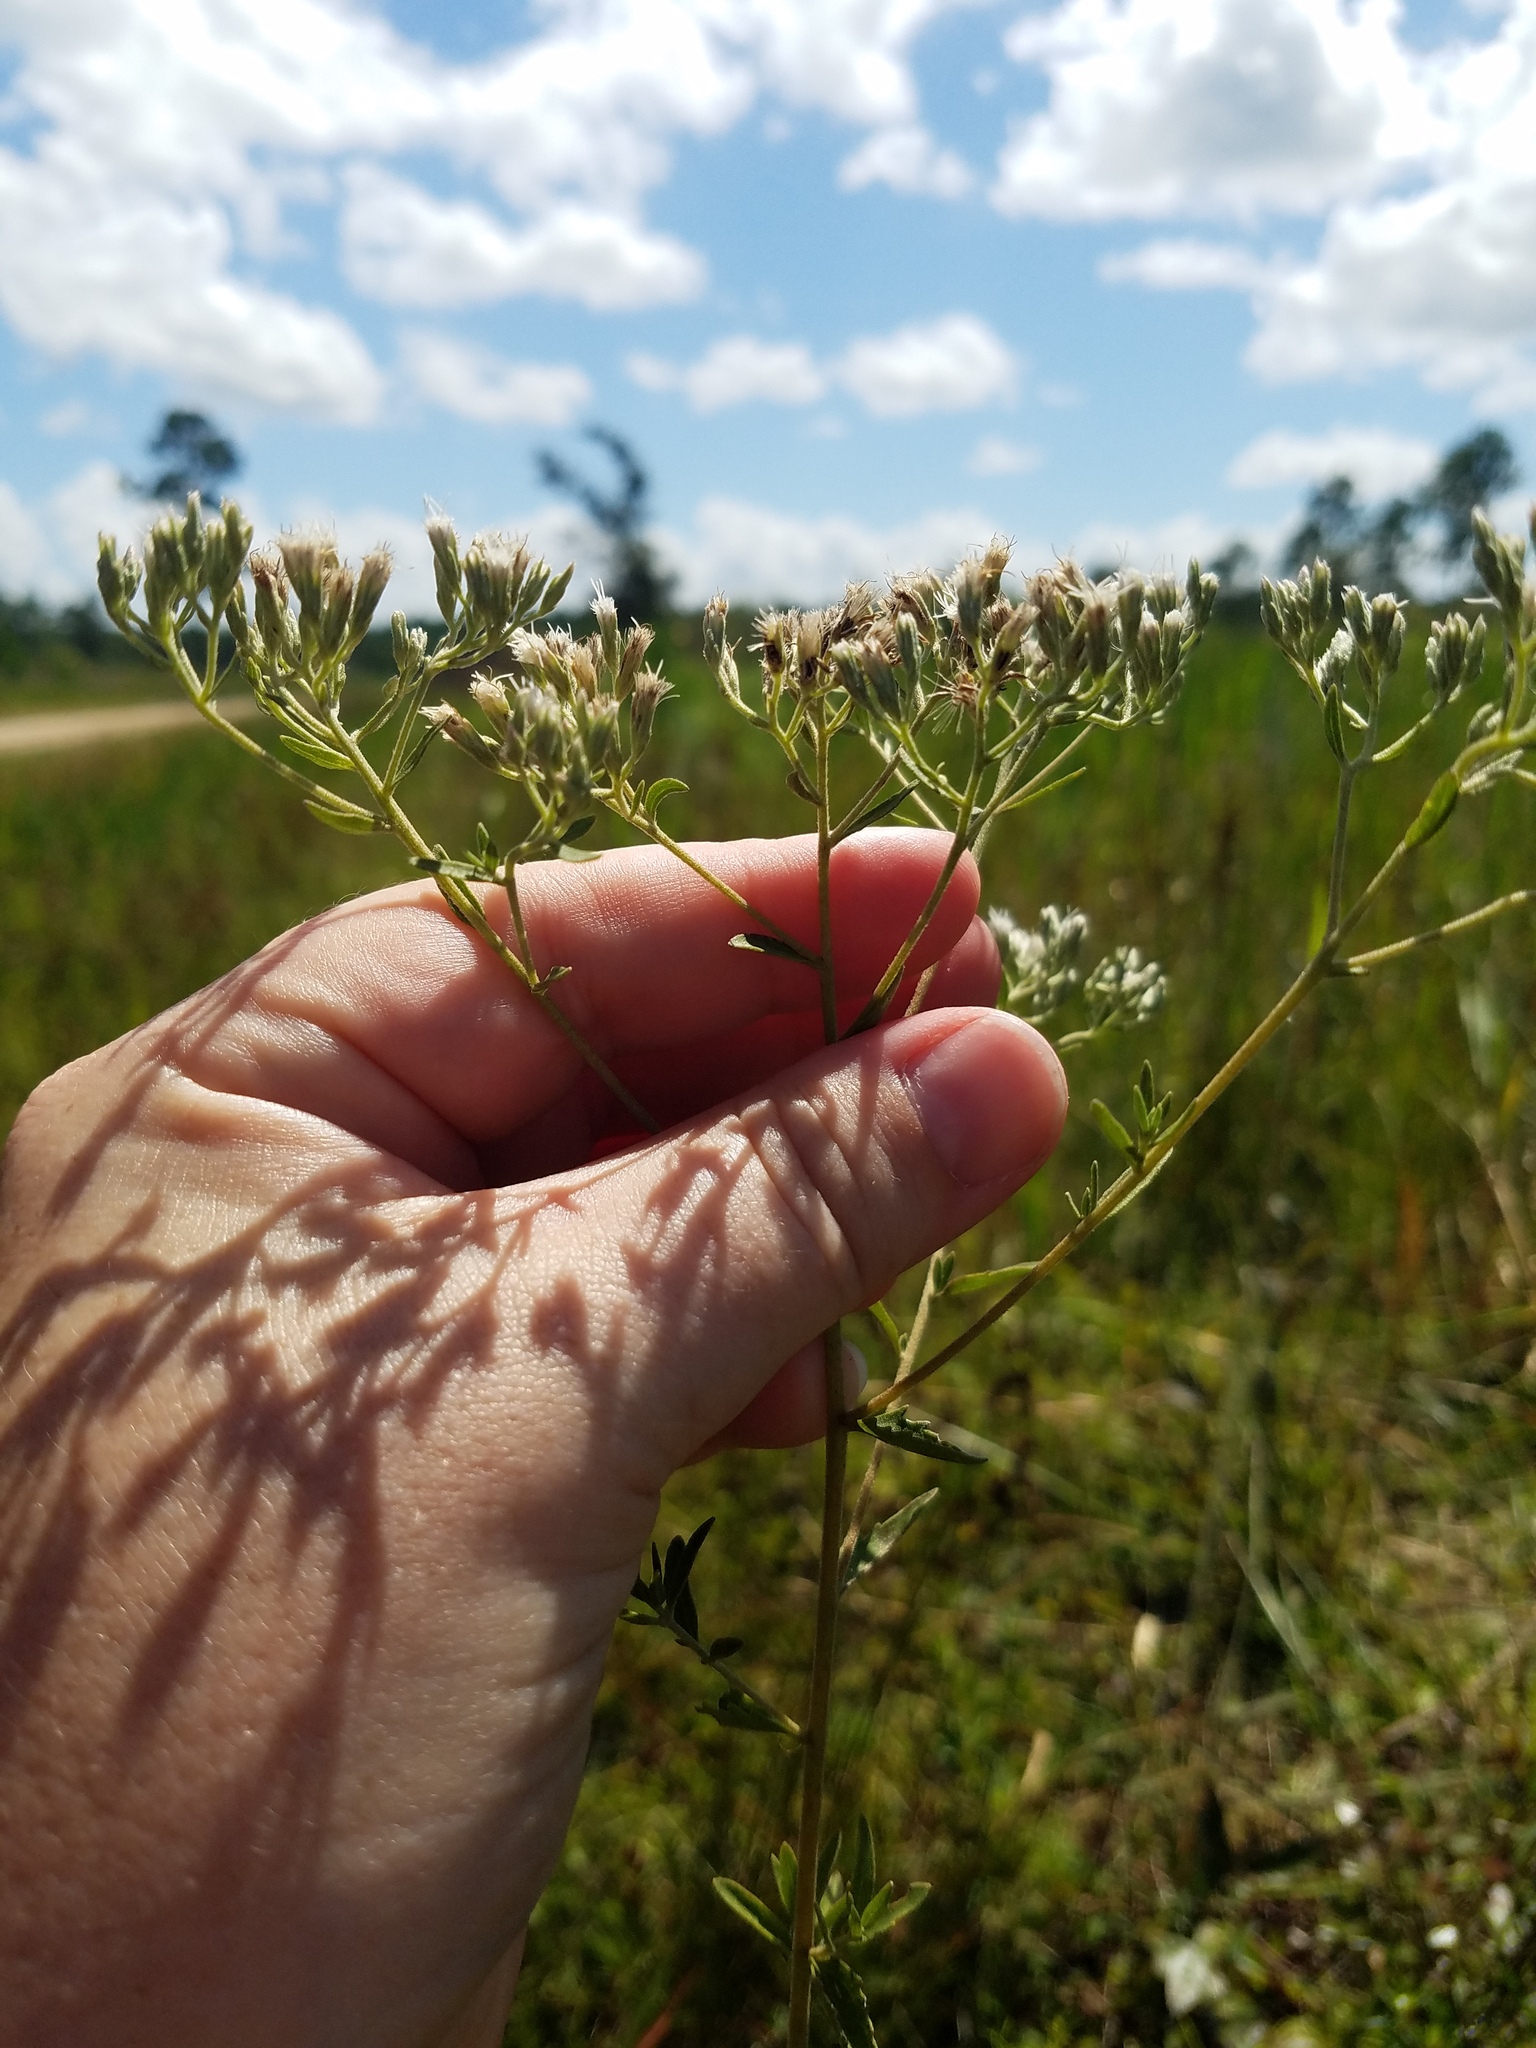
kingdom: Plantae
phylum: Tracheophyta
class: Magnoliopsida
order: Asterales
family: Asteraceae
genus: Eupatorium
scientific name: Eupatorium mohrii
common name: Mohr's thoroughwort
